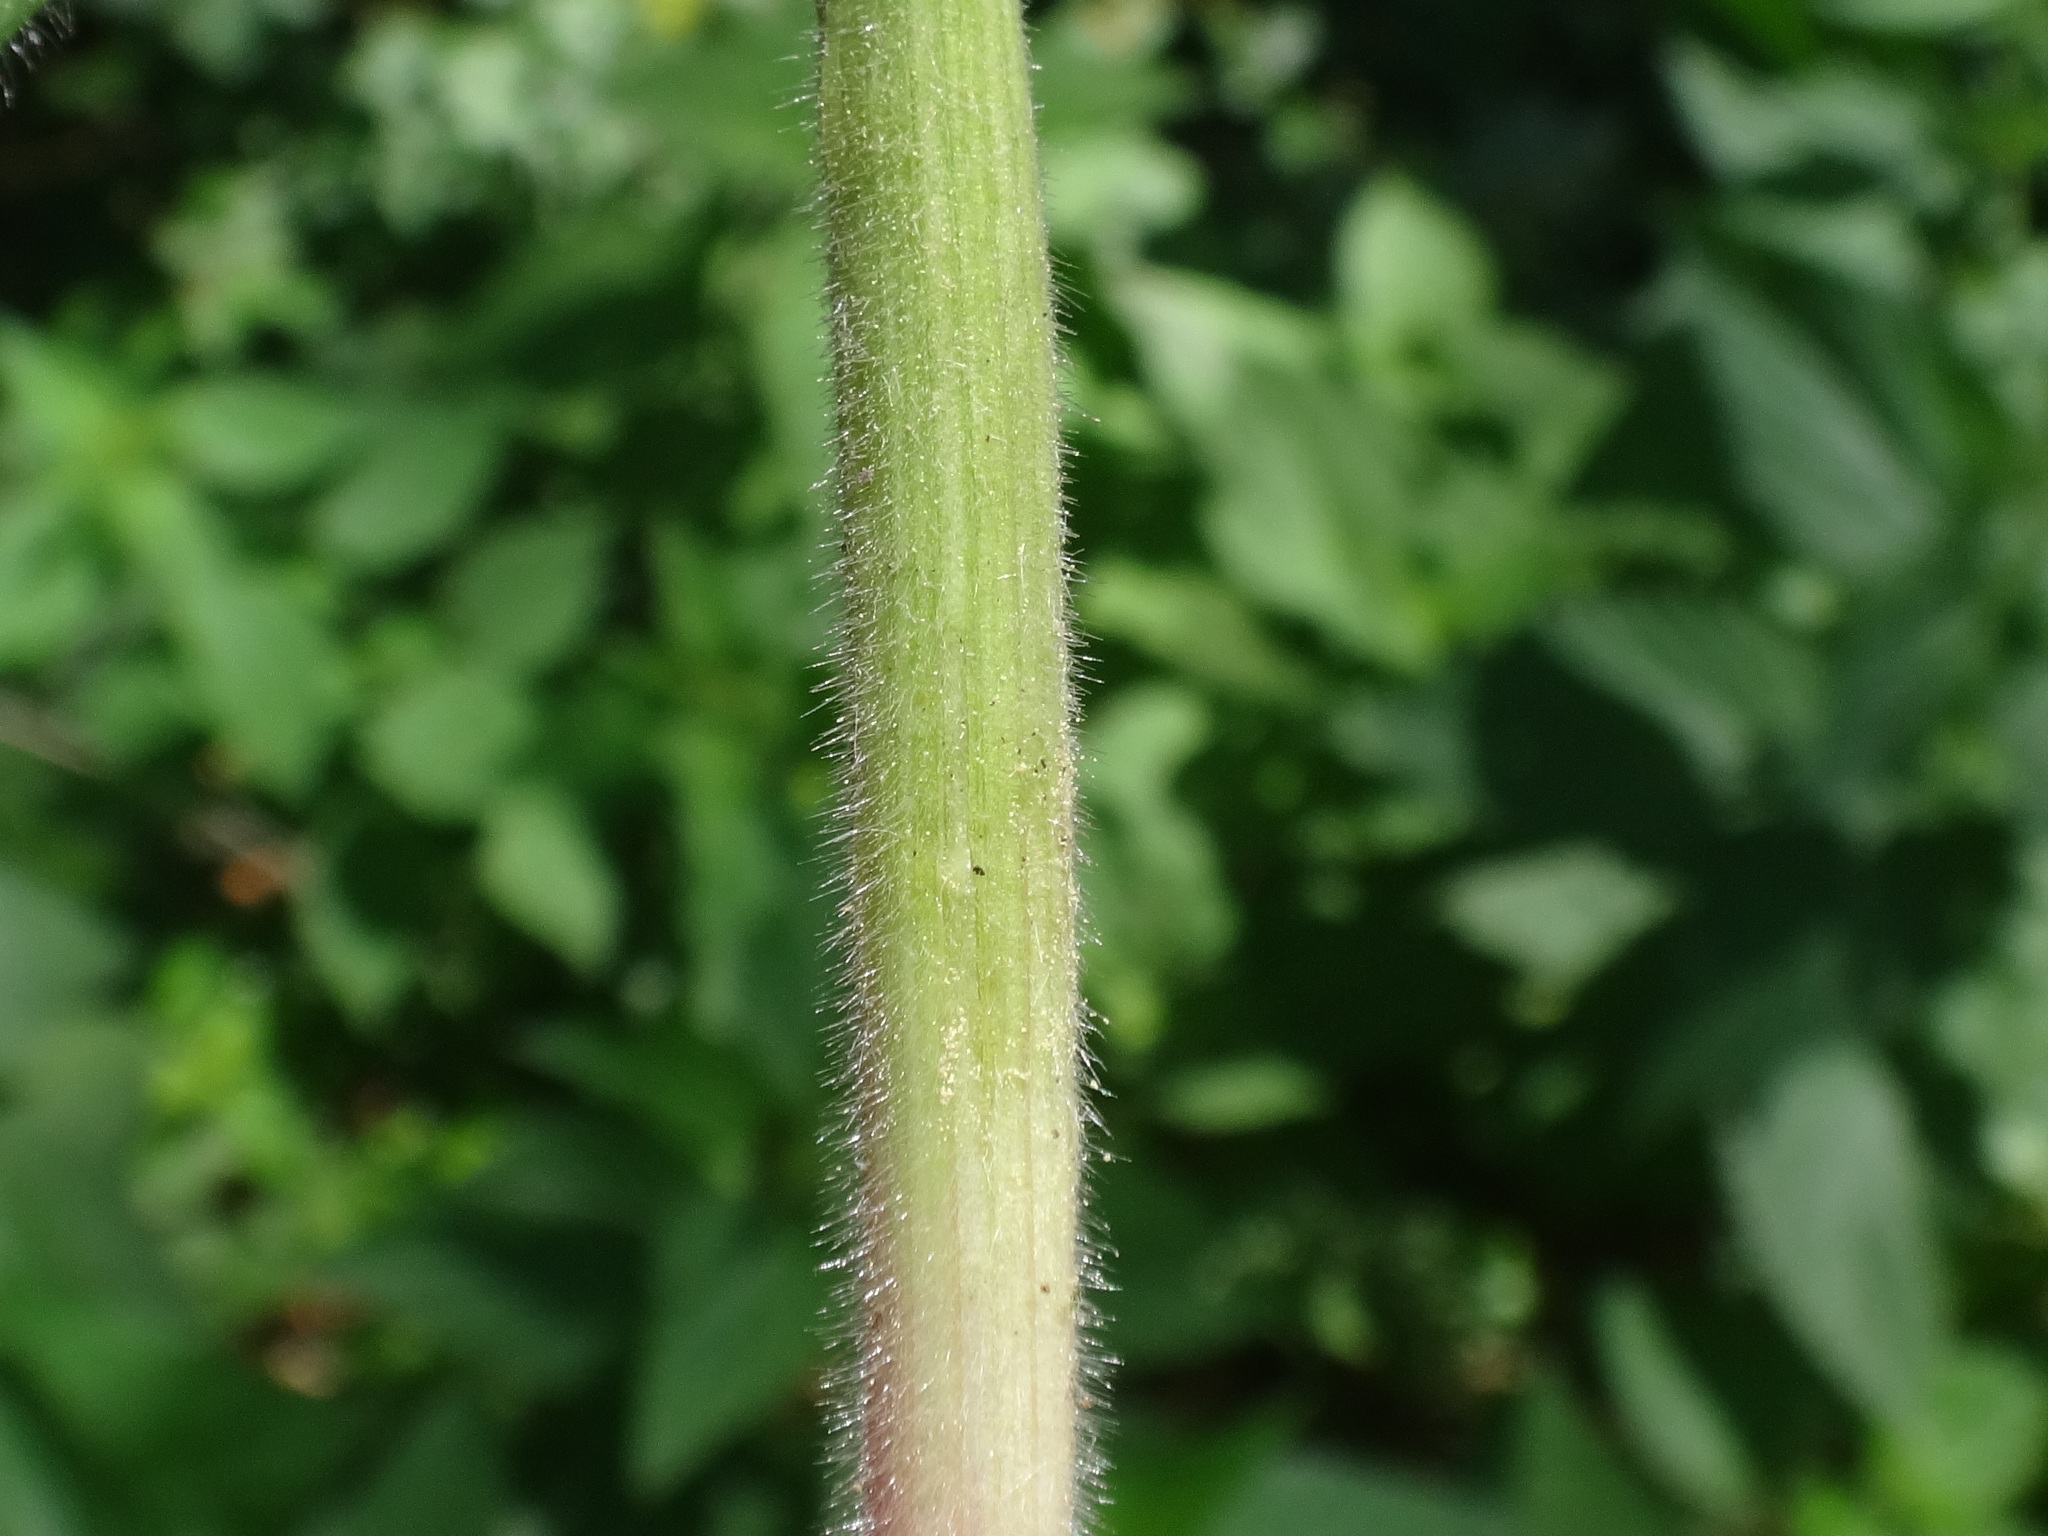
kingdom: Plantae
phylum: Tracheophyta
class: Liliopsida
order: Poales
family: Poaceae
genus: Bromus
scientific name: Bromus benekenii
